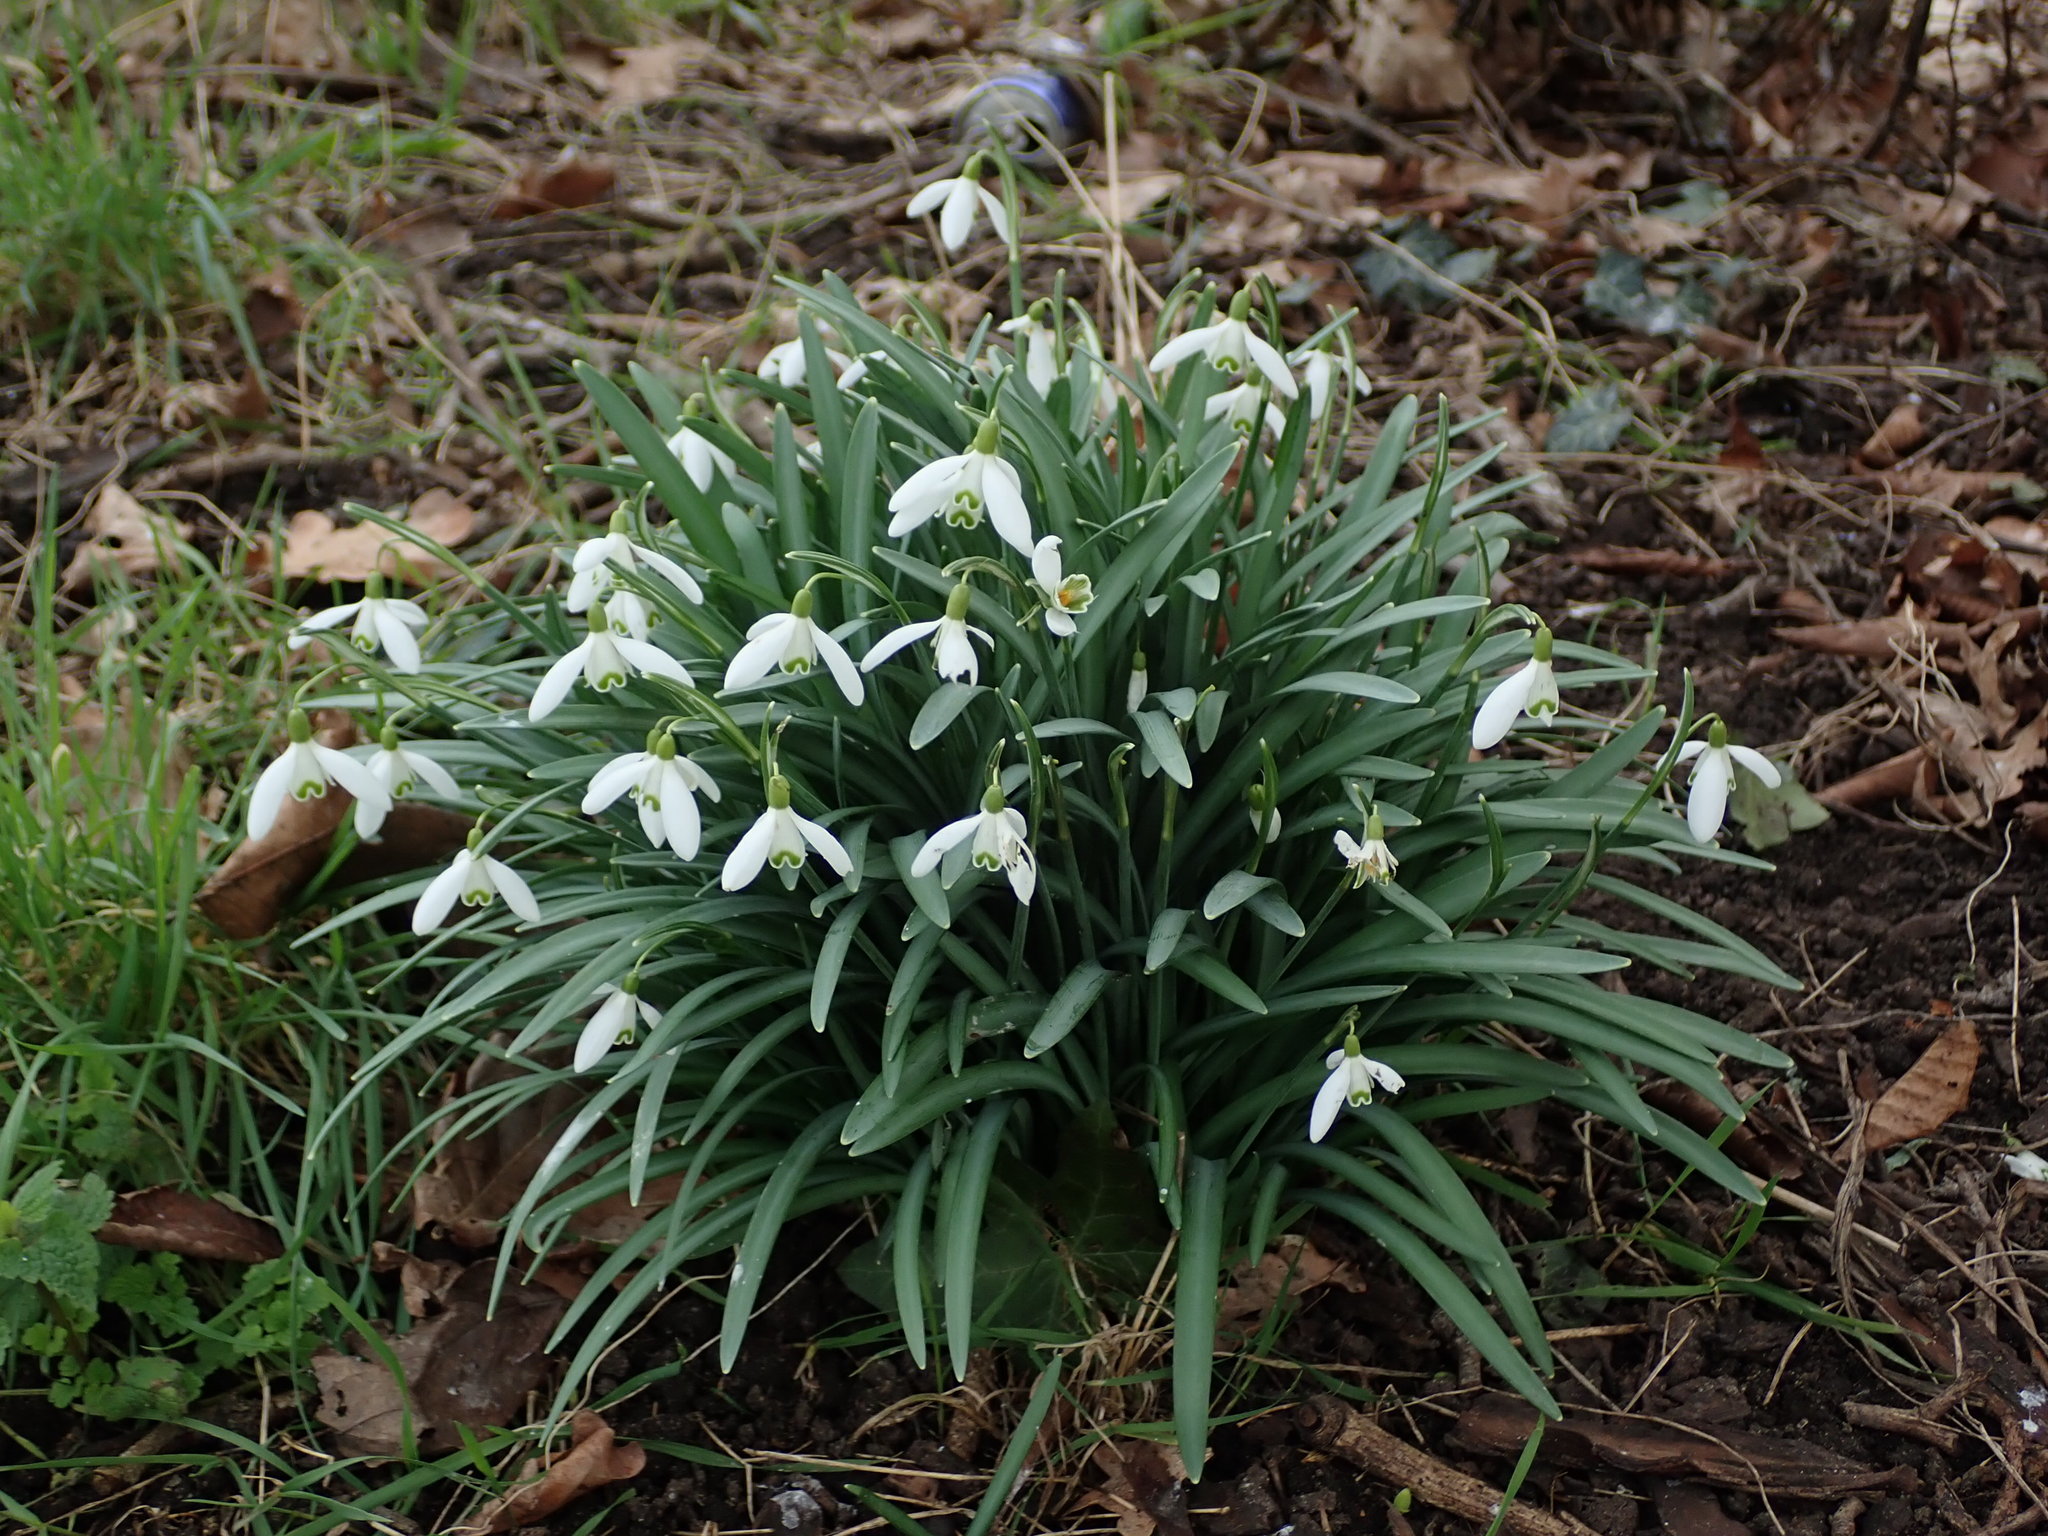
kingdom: Plantae
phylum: Tracheophyta
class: Liliopsida
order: Asparagales
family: Amaryllidaceae
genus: Galanthus
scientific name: Galanthus nivalis
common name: Snowdrop
